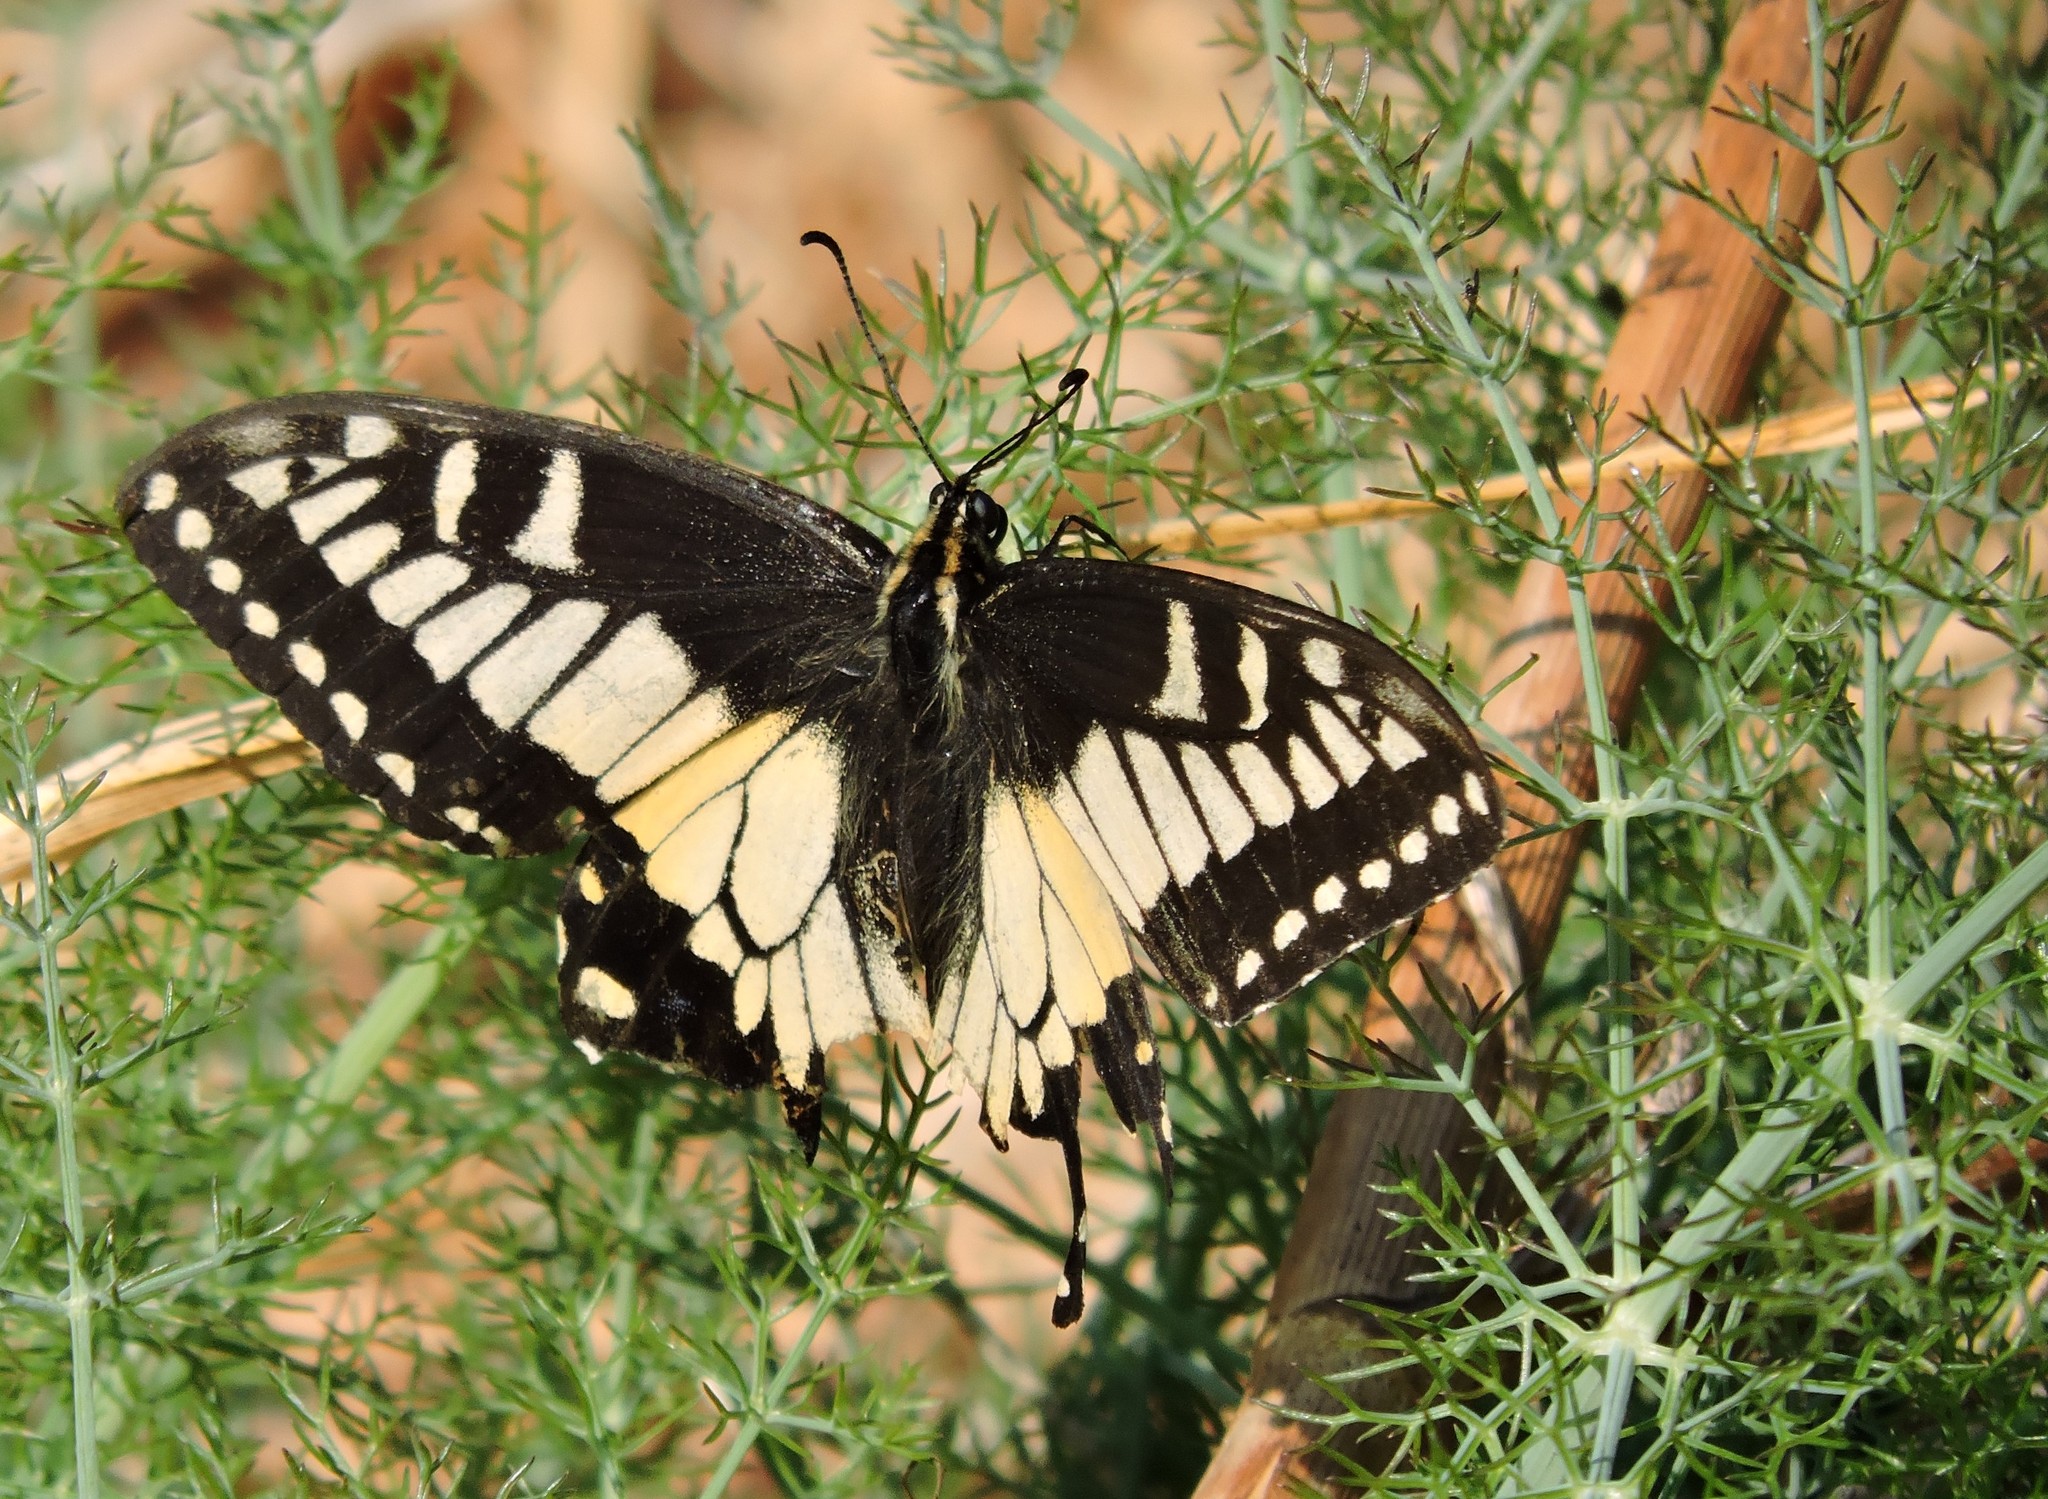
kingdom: Animalia
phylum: Arthropoda
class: Insecta
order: Lepidoptera
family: Papilionidae
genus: Papilio
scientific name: Papilio zelicaon
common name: Anise swallowtail
